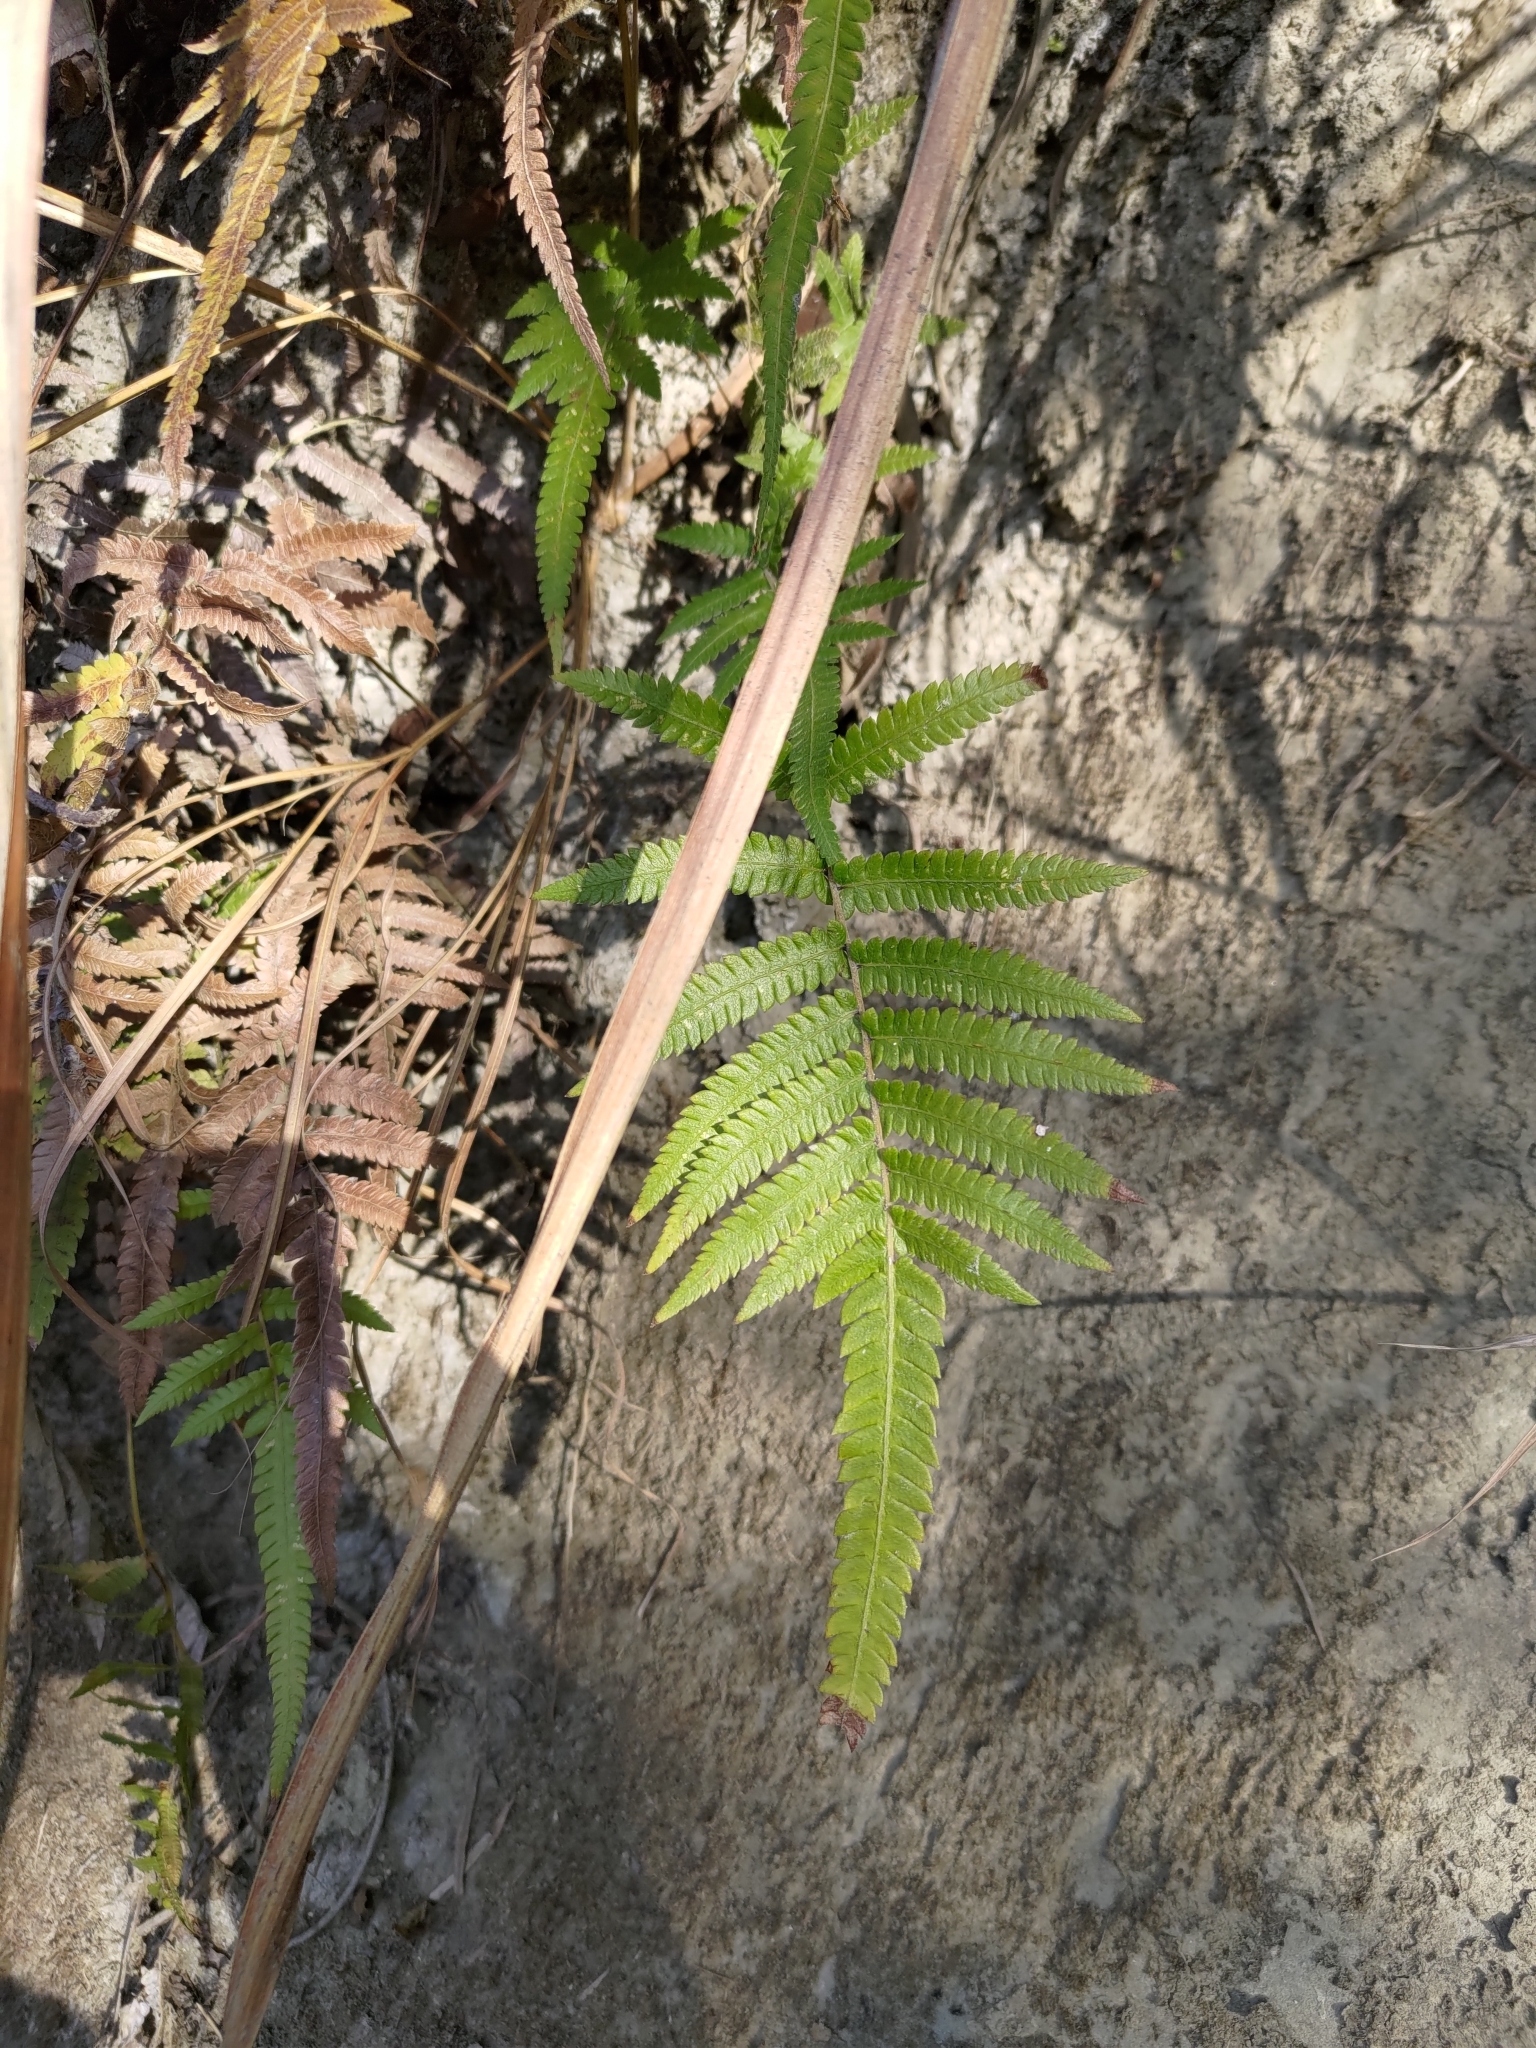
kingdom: Plantae
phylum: Tracheophyta
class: Polypodiopsida
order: Polypodiales
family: Thelypteridaceae
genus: Christella
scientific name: Christella acuminata
